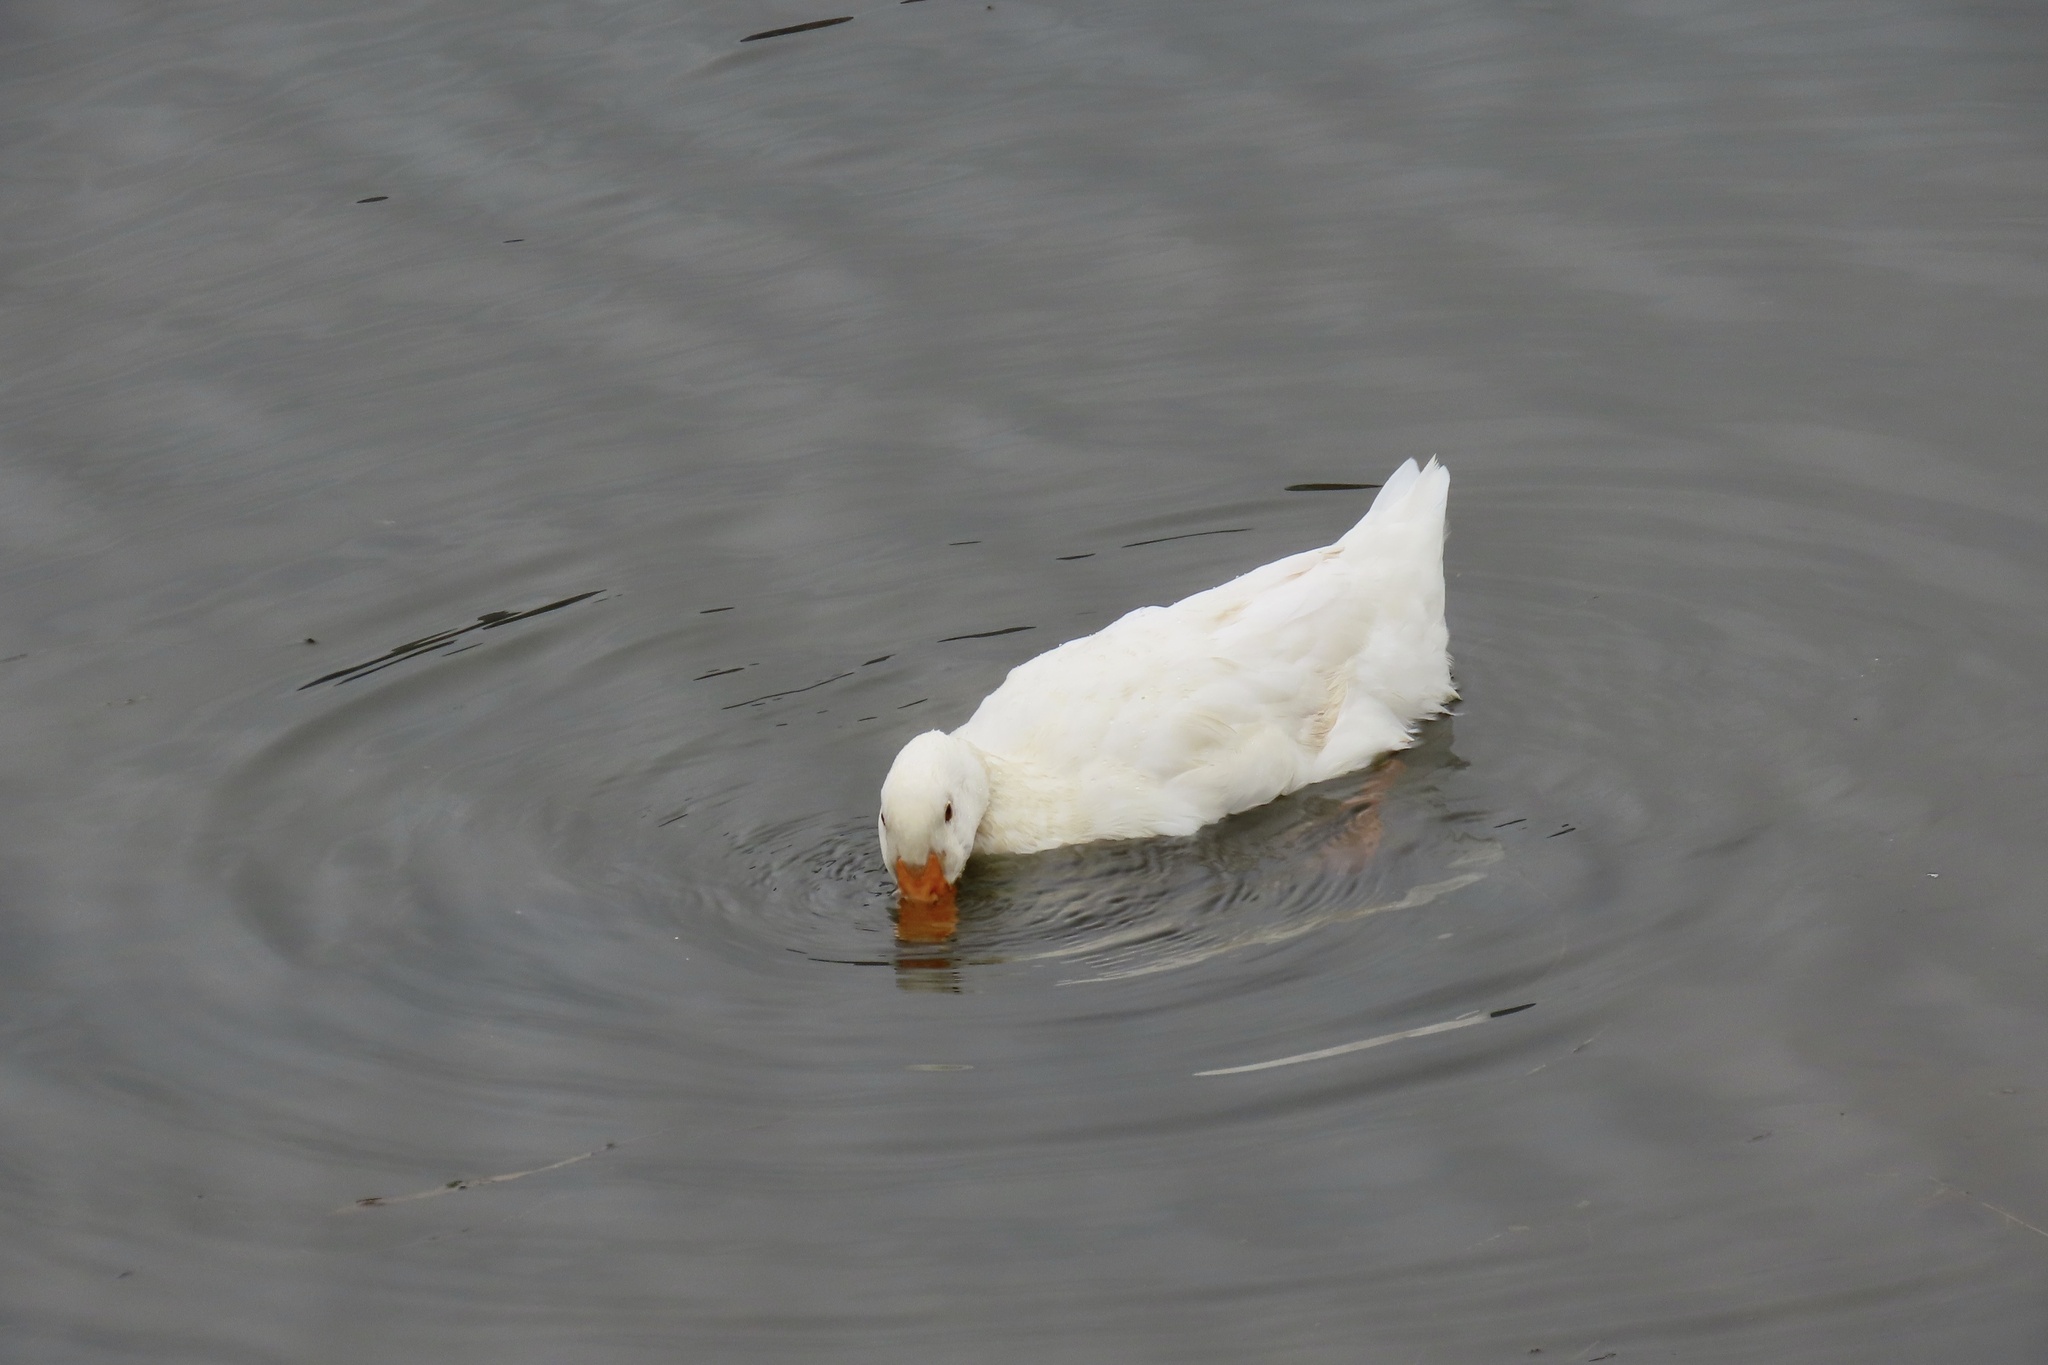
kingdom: Animalia
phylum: Chordata
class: Aves
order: Anseriformes
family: Anatidae
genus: Anas
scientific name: Anas platyrhynchos
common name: Mallard
